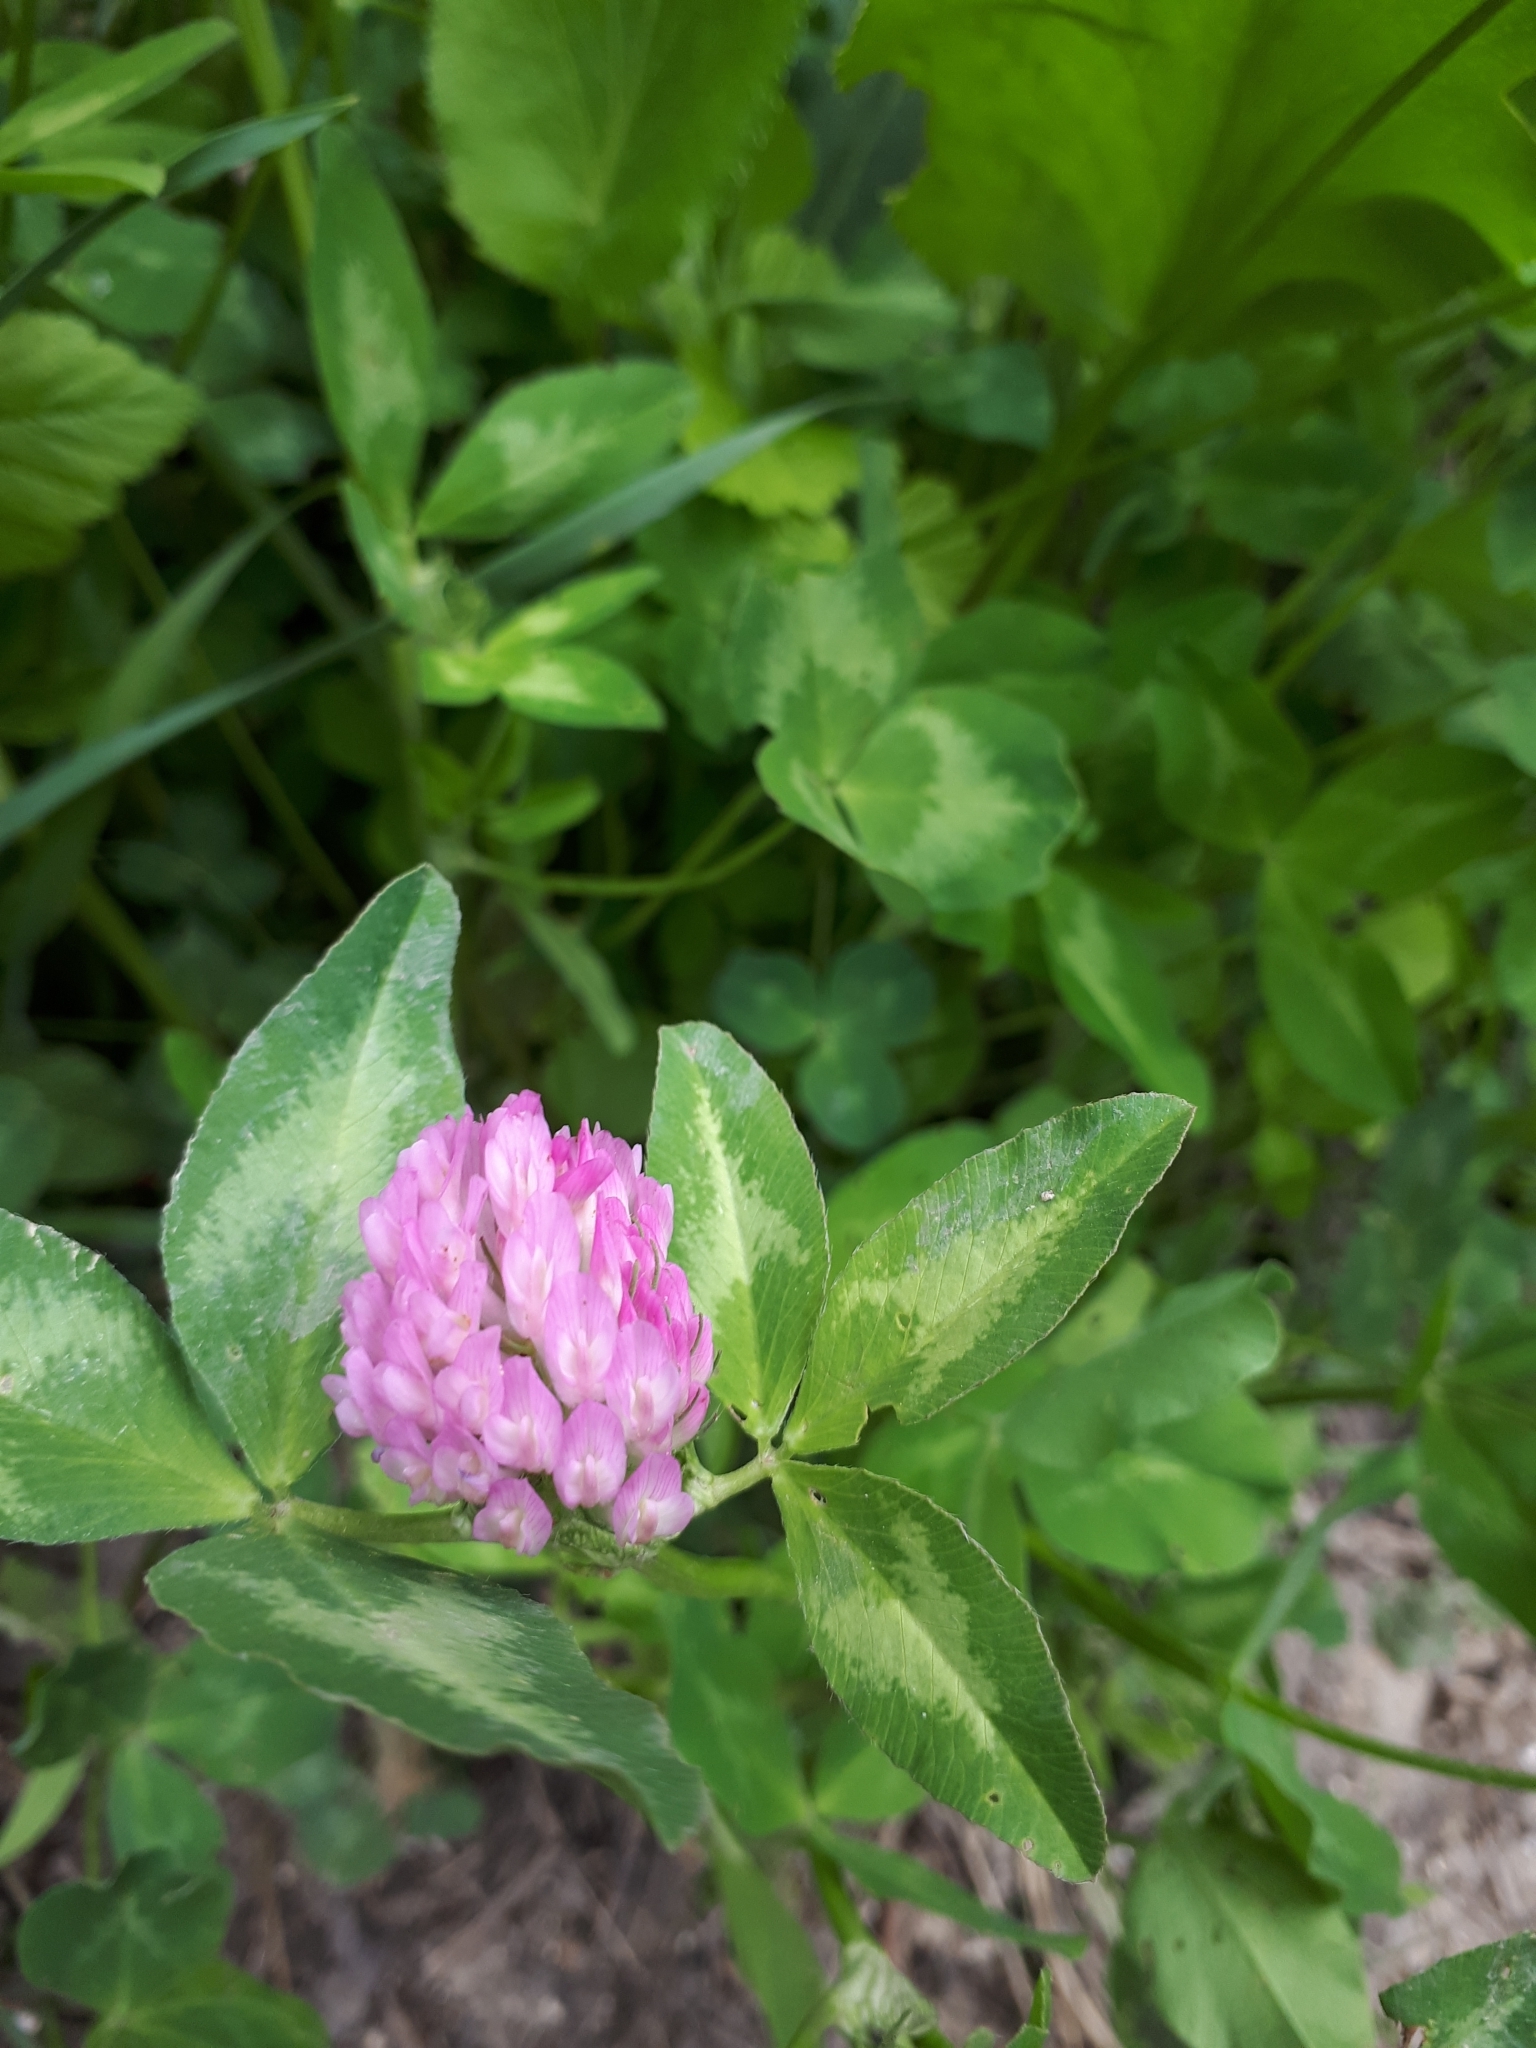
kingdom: Plantae
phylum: Tracheophyta
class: Magnoliopsida
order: Fabales
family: Fabaceae
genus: Trifolium
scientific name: Trifolium pratense
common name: Red clover
